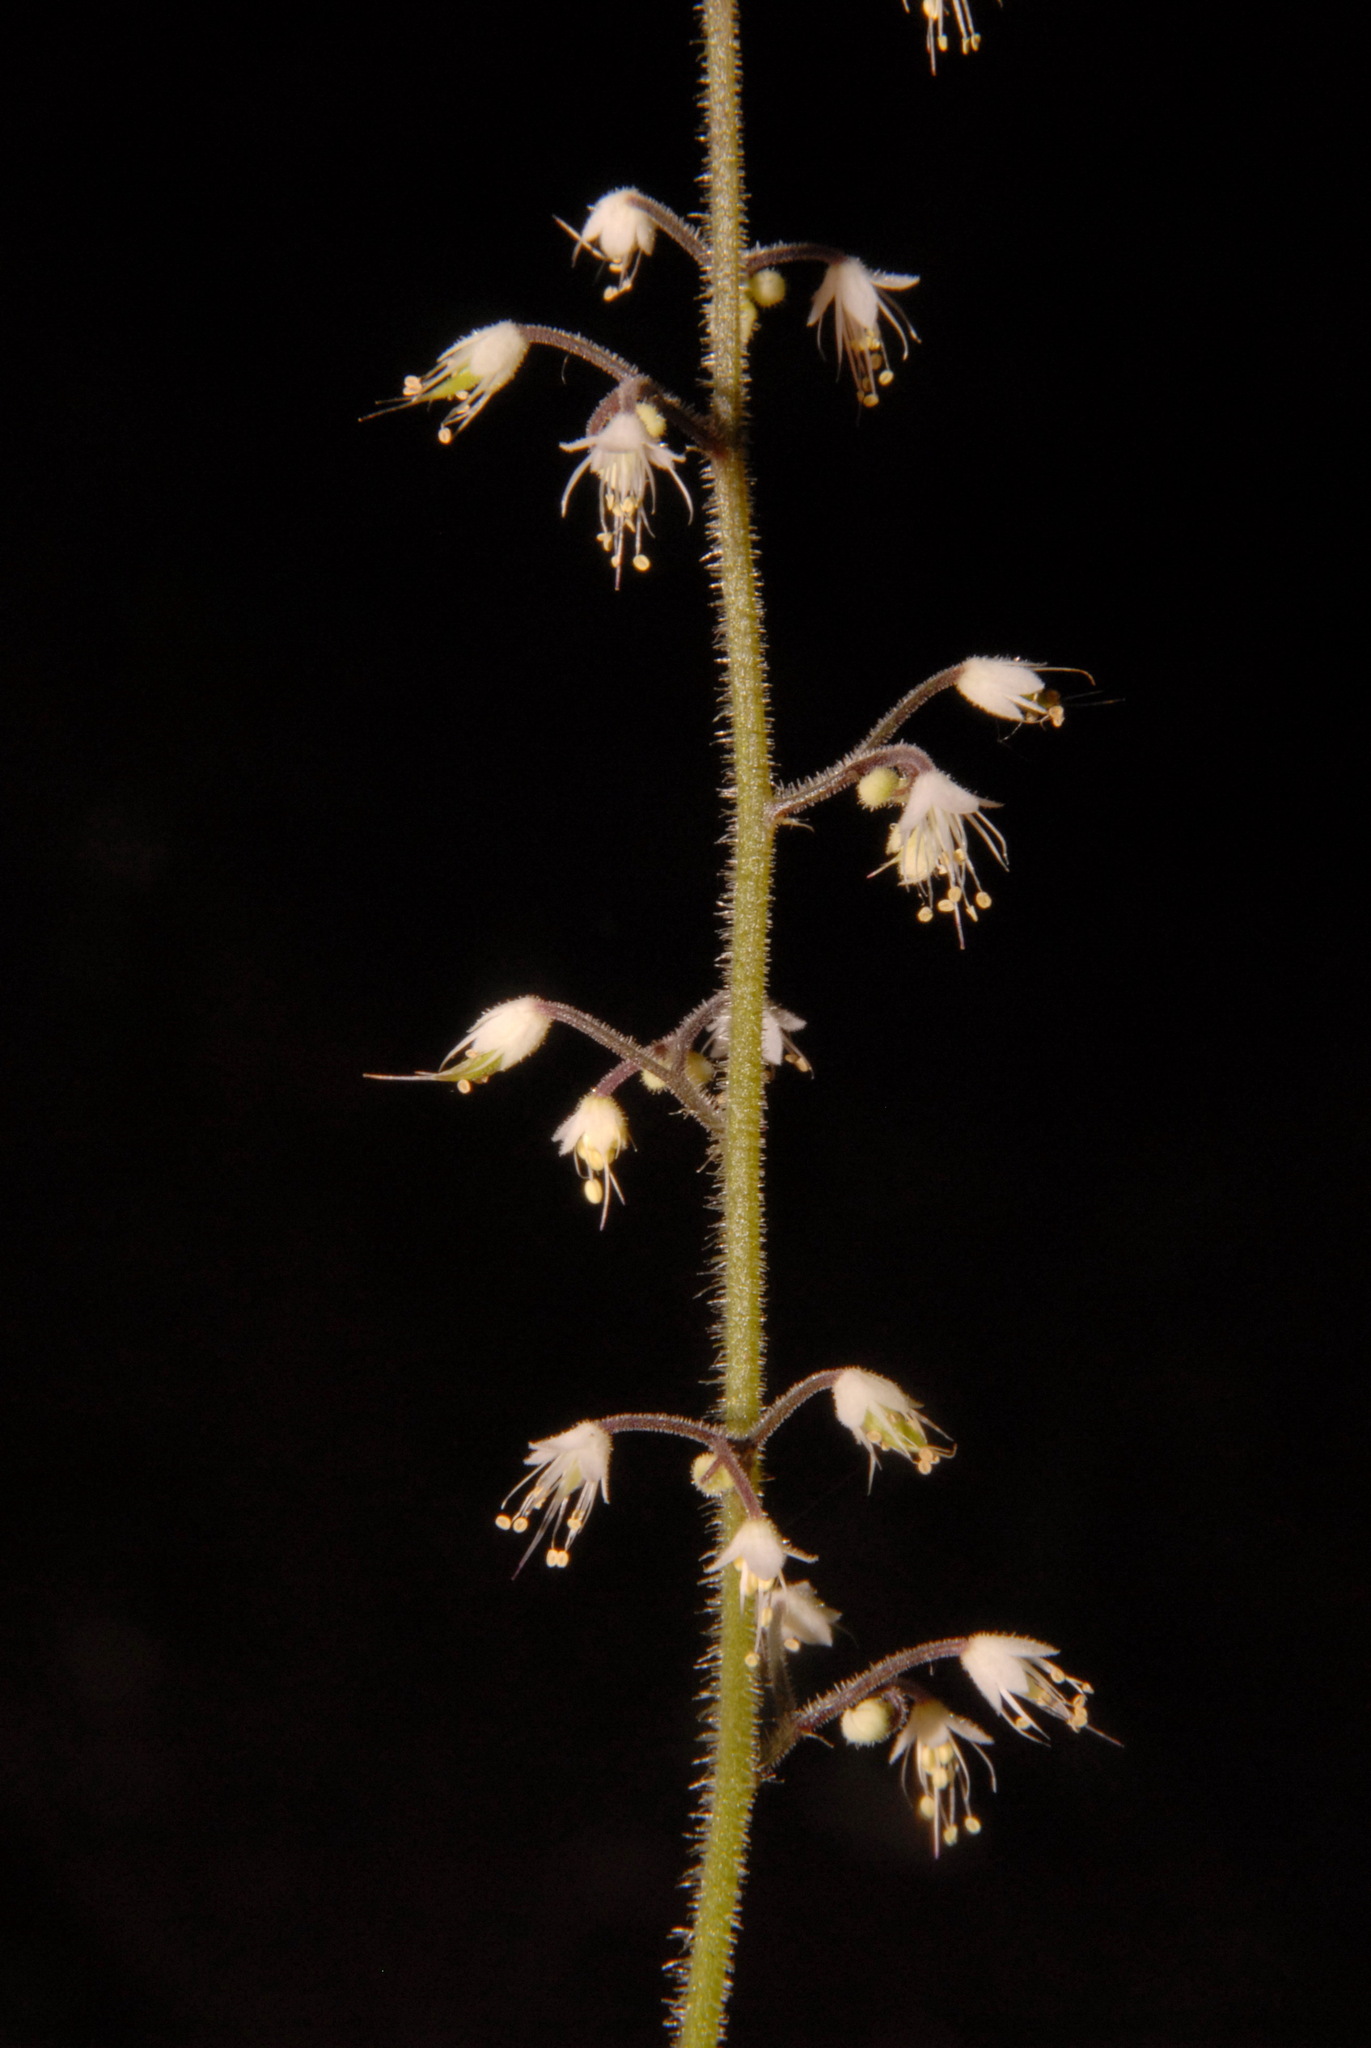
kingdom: Plantae
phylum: Tracheophyta
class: Magnoliopsida
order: Saxifragales
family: Saxifragaceae
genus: Tiarella
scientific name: Tiarella trifoliata
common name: Sugar-scoop
